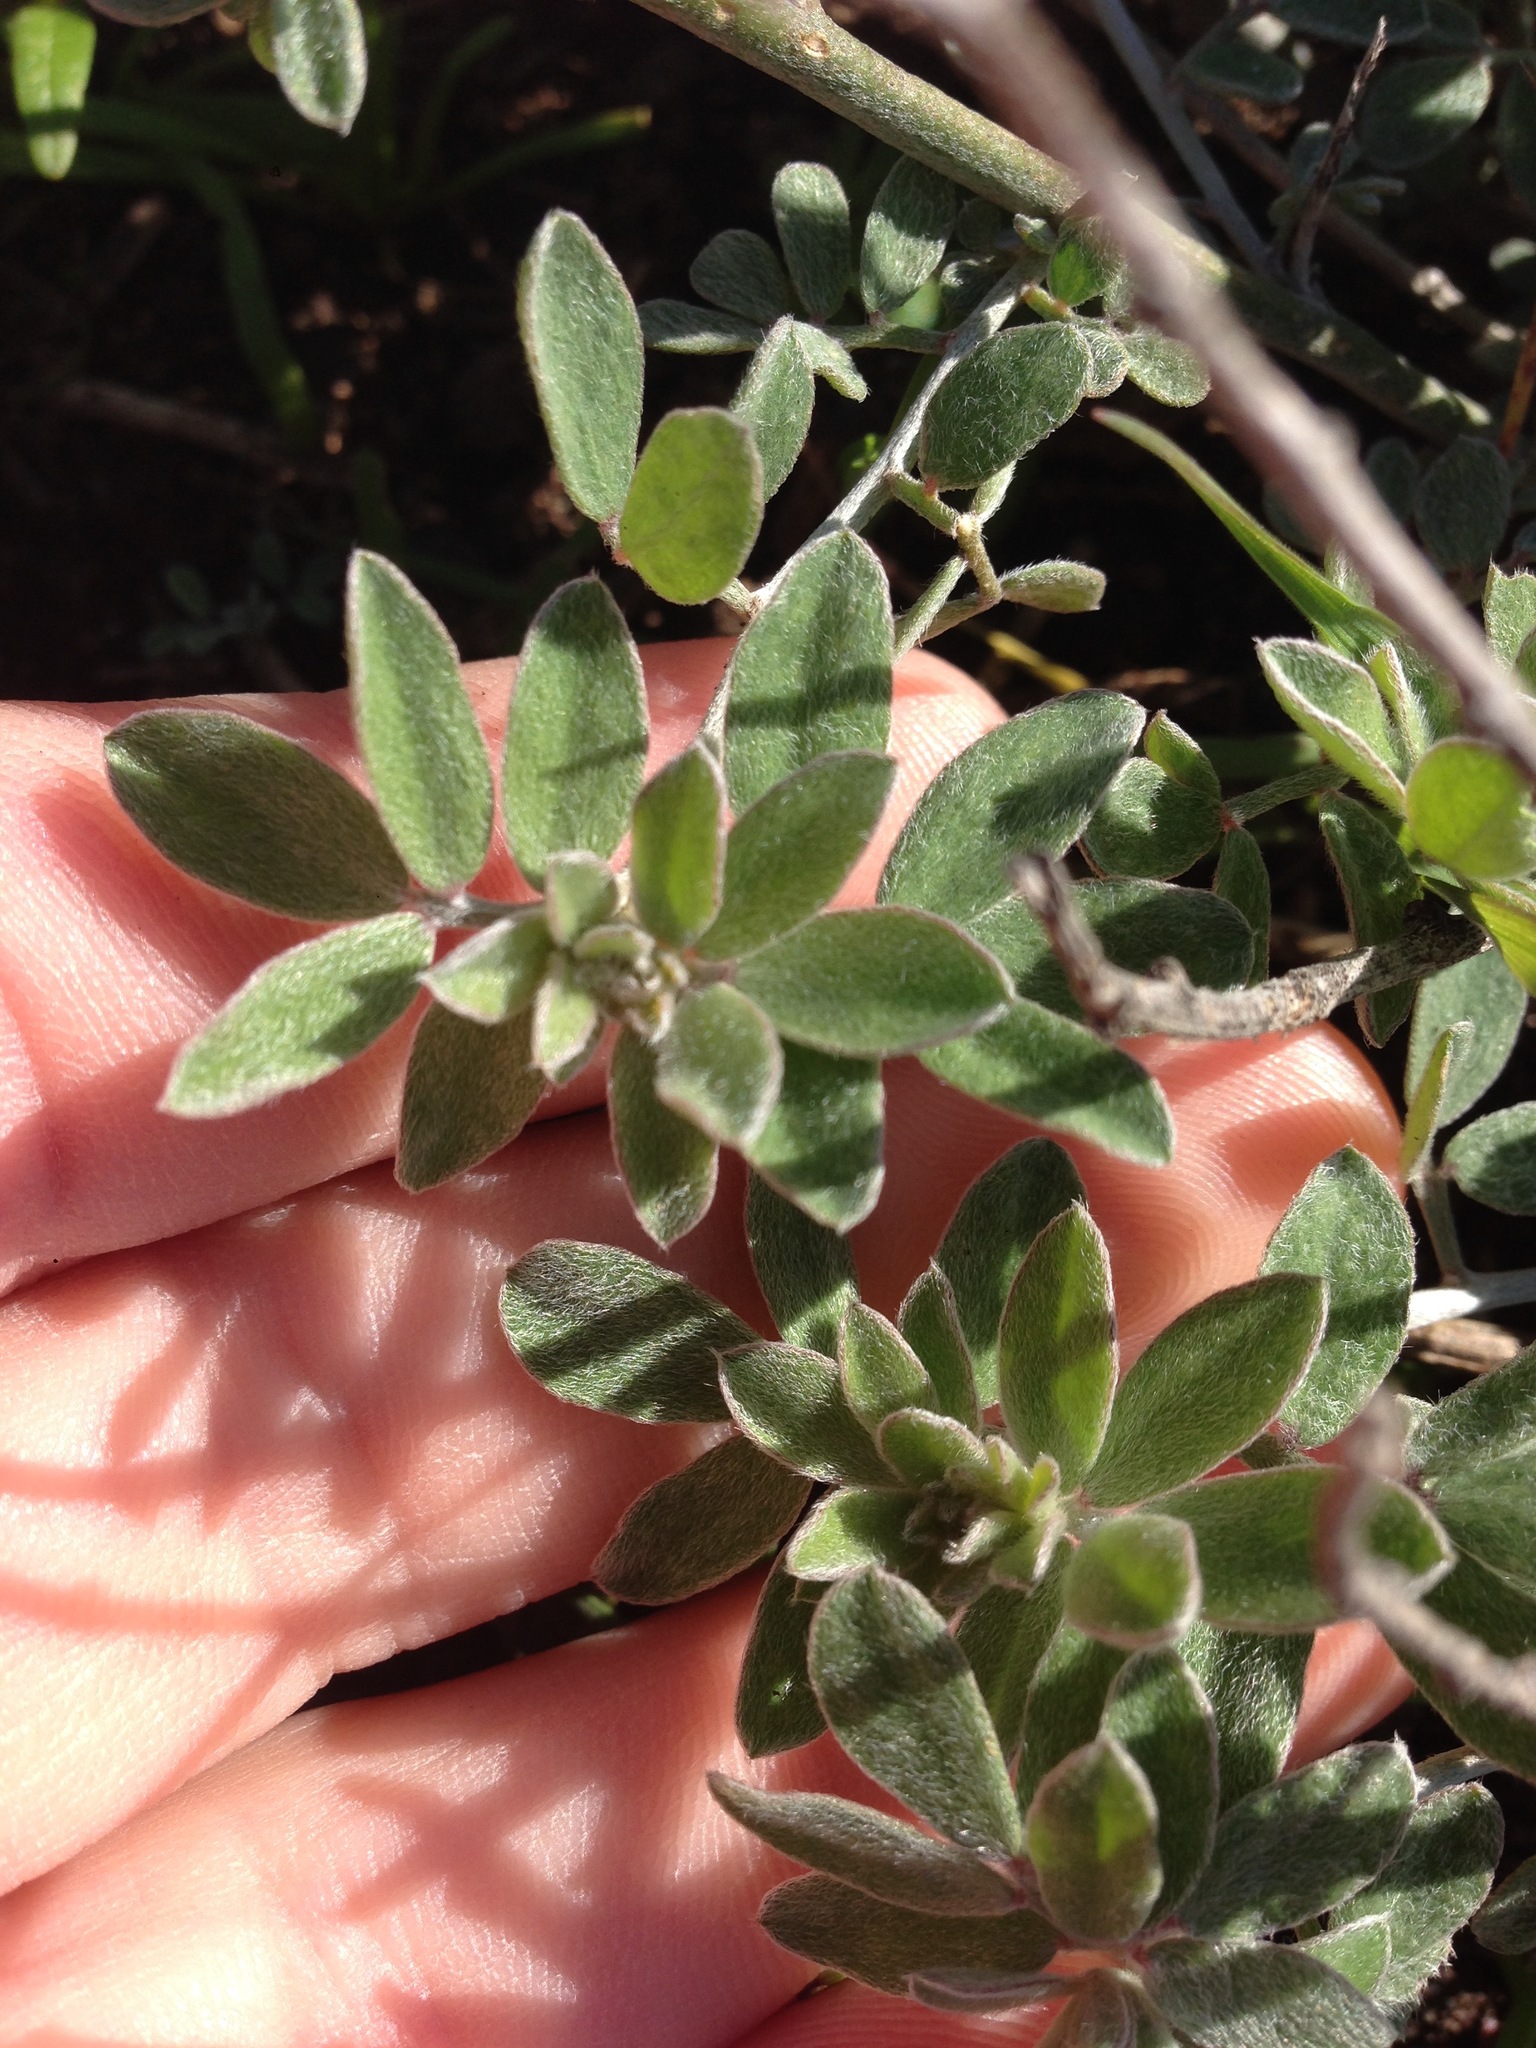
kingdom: Plantae
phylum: Tracheophyta
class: Magnoliopsida
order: Fabales
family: Fabaceae
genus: Acmispon
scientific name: Acmispon argophyllus
